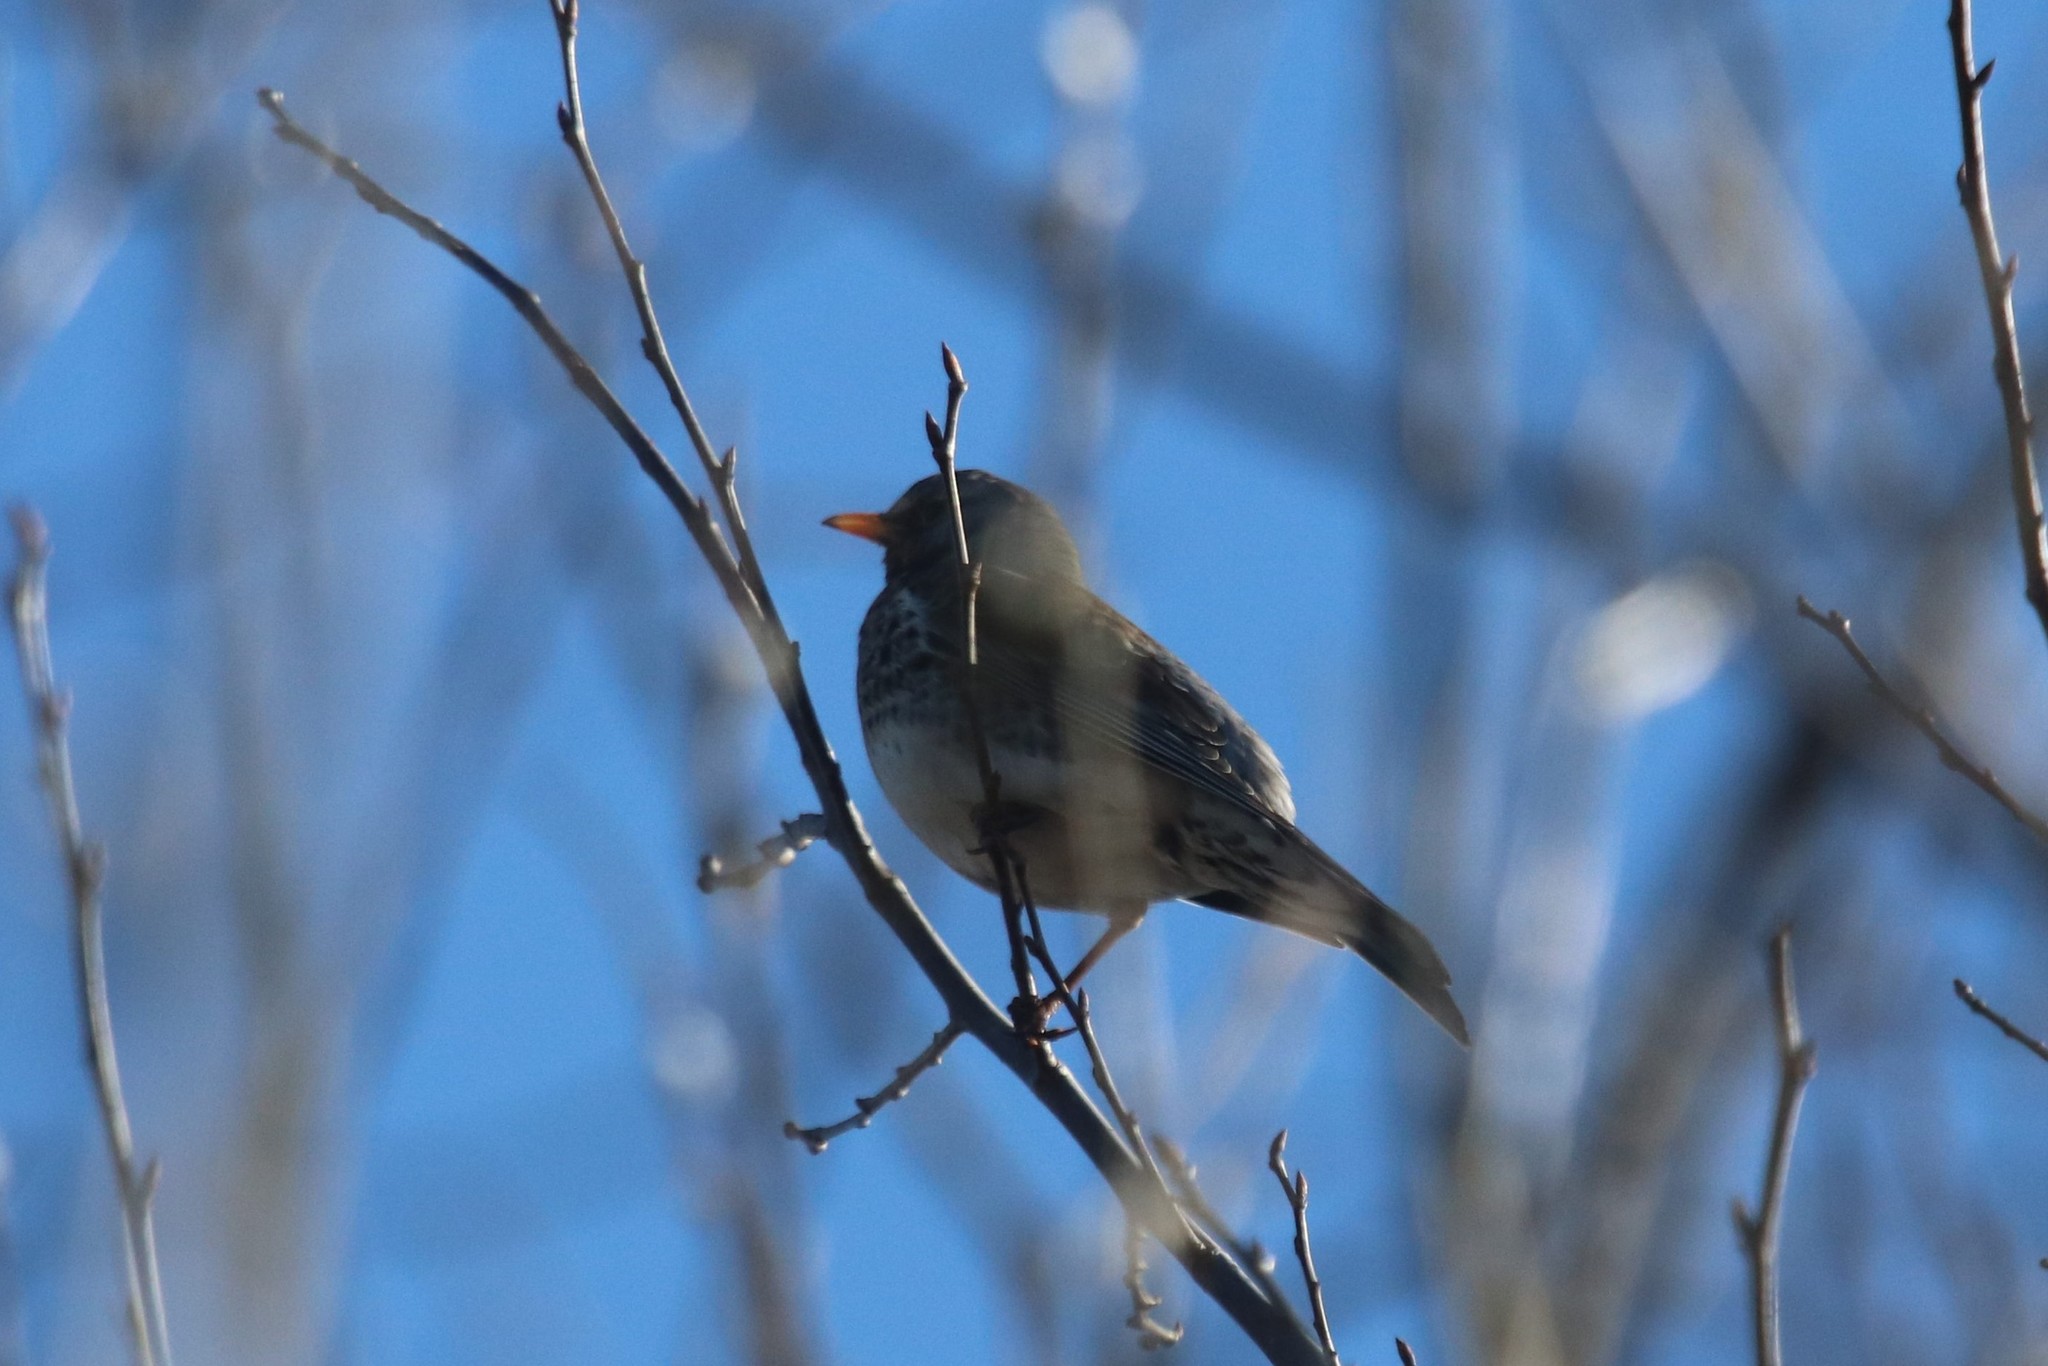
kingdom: Animalia
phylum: Chordata
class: Aves
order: Passeriformes
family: Turdidae
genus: Turdus
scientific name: Turdus pilaris
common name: Fieldfare
